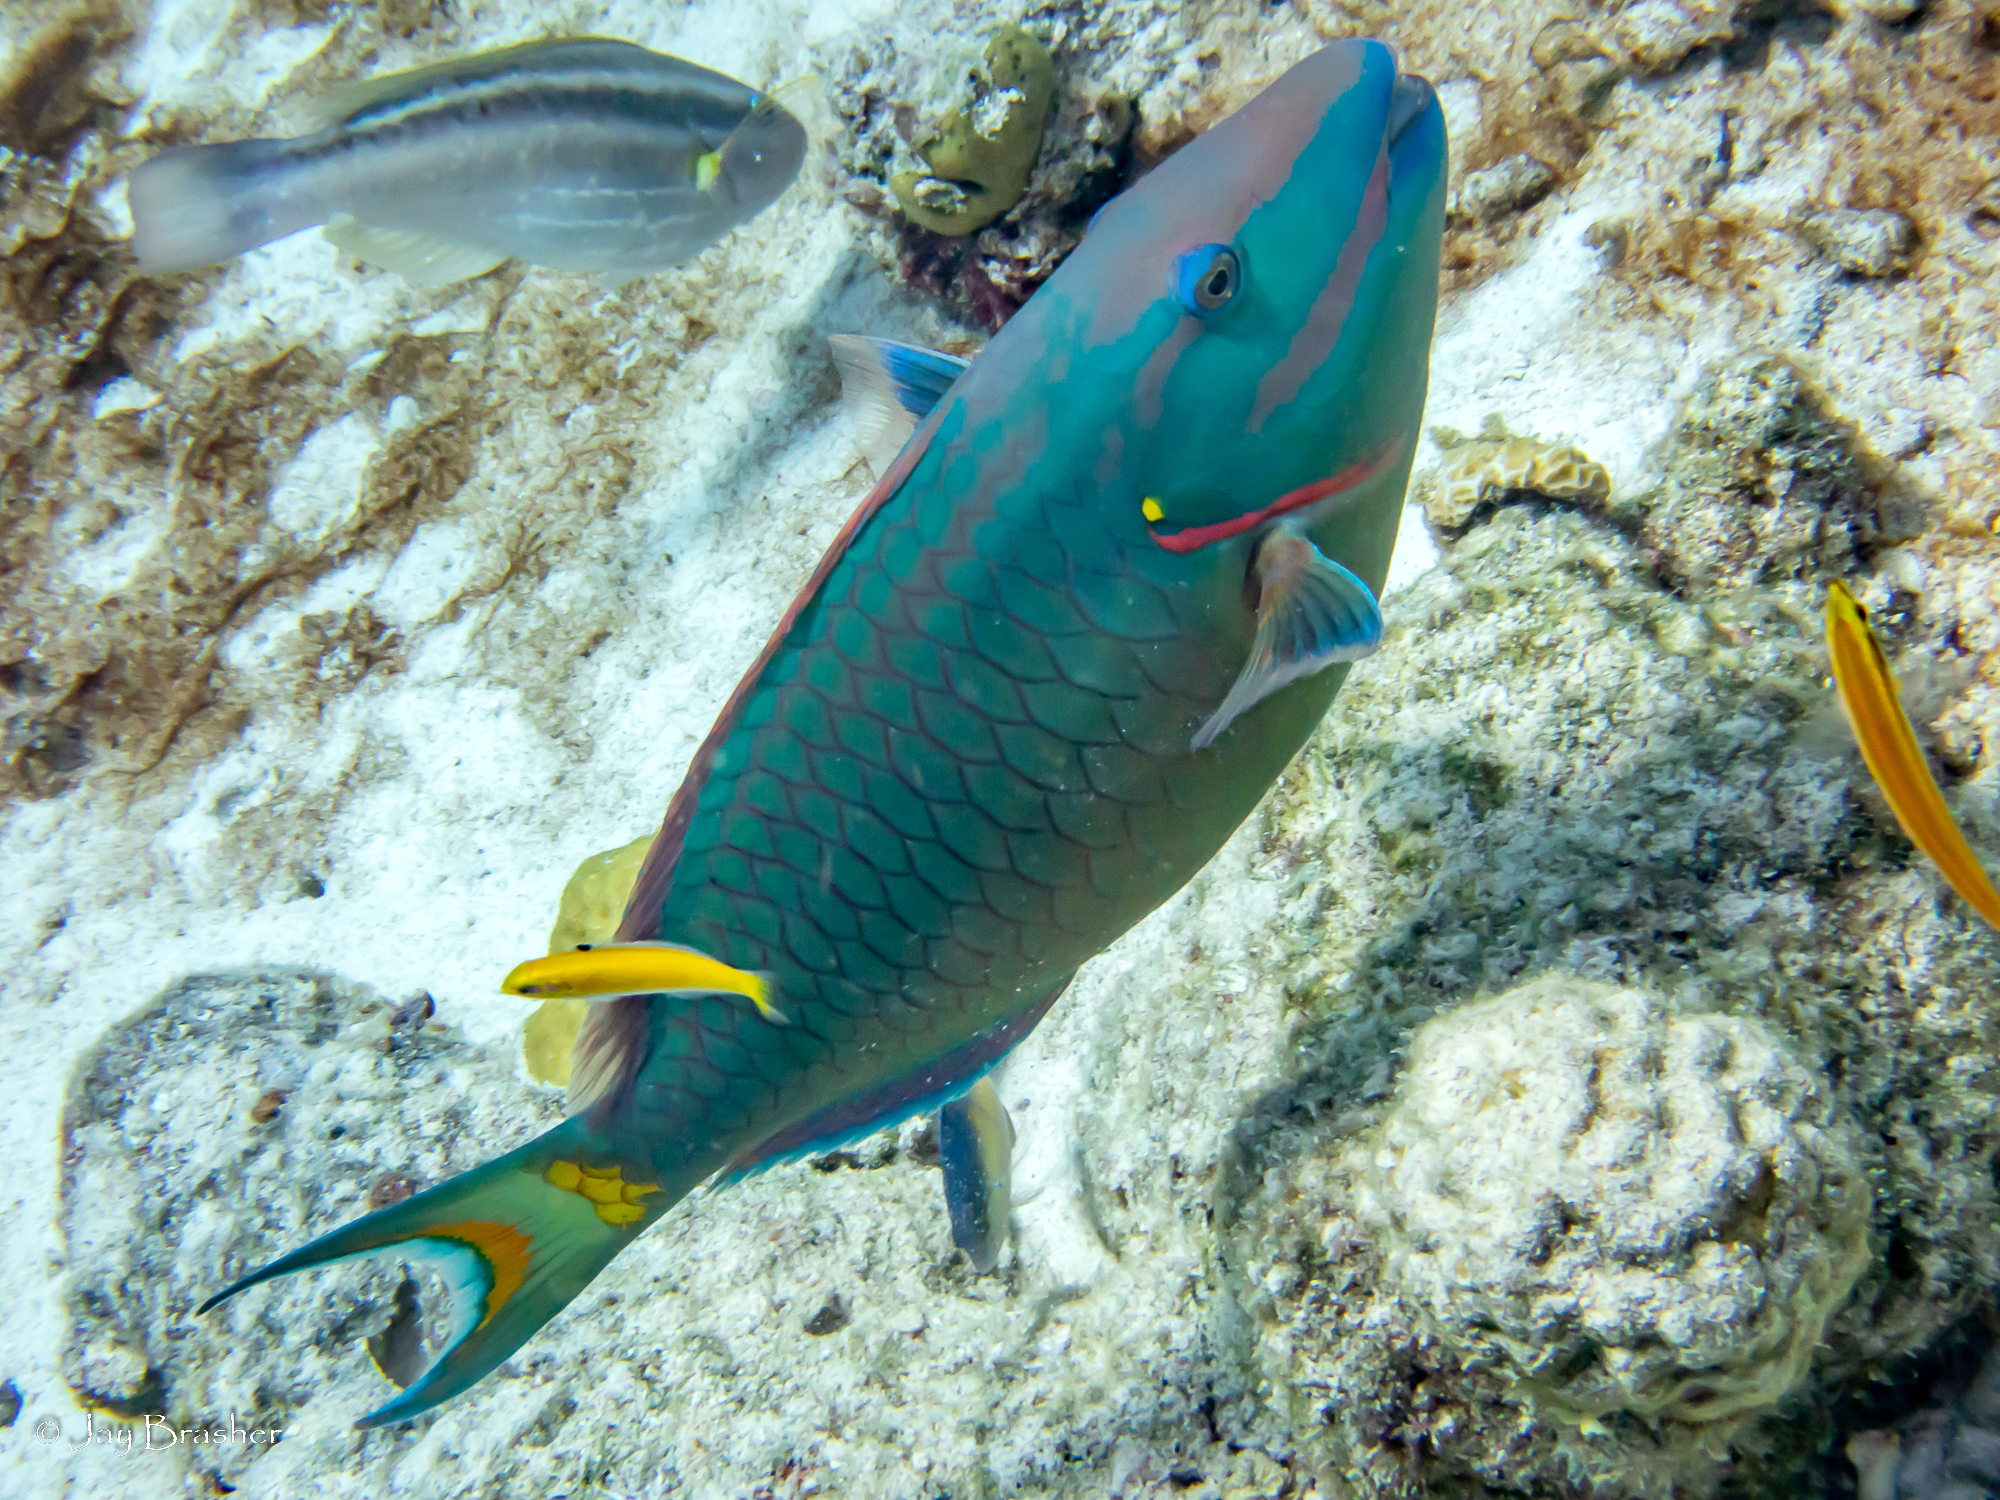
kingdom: Animalia
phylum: Chordata
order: Perciformes
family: Scaridae
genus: Sparisoma
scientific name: Sparisoma viride
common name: Stoplight parrotfish
